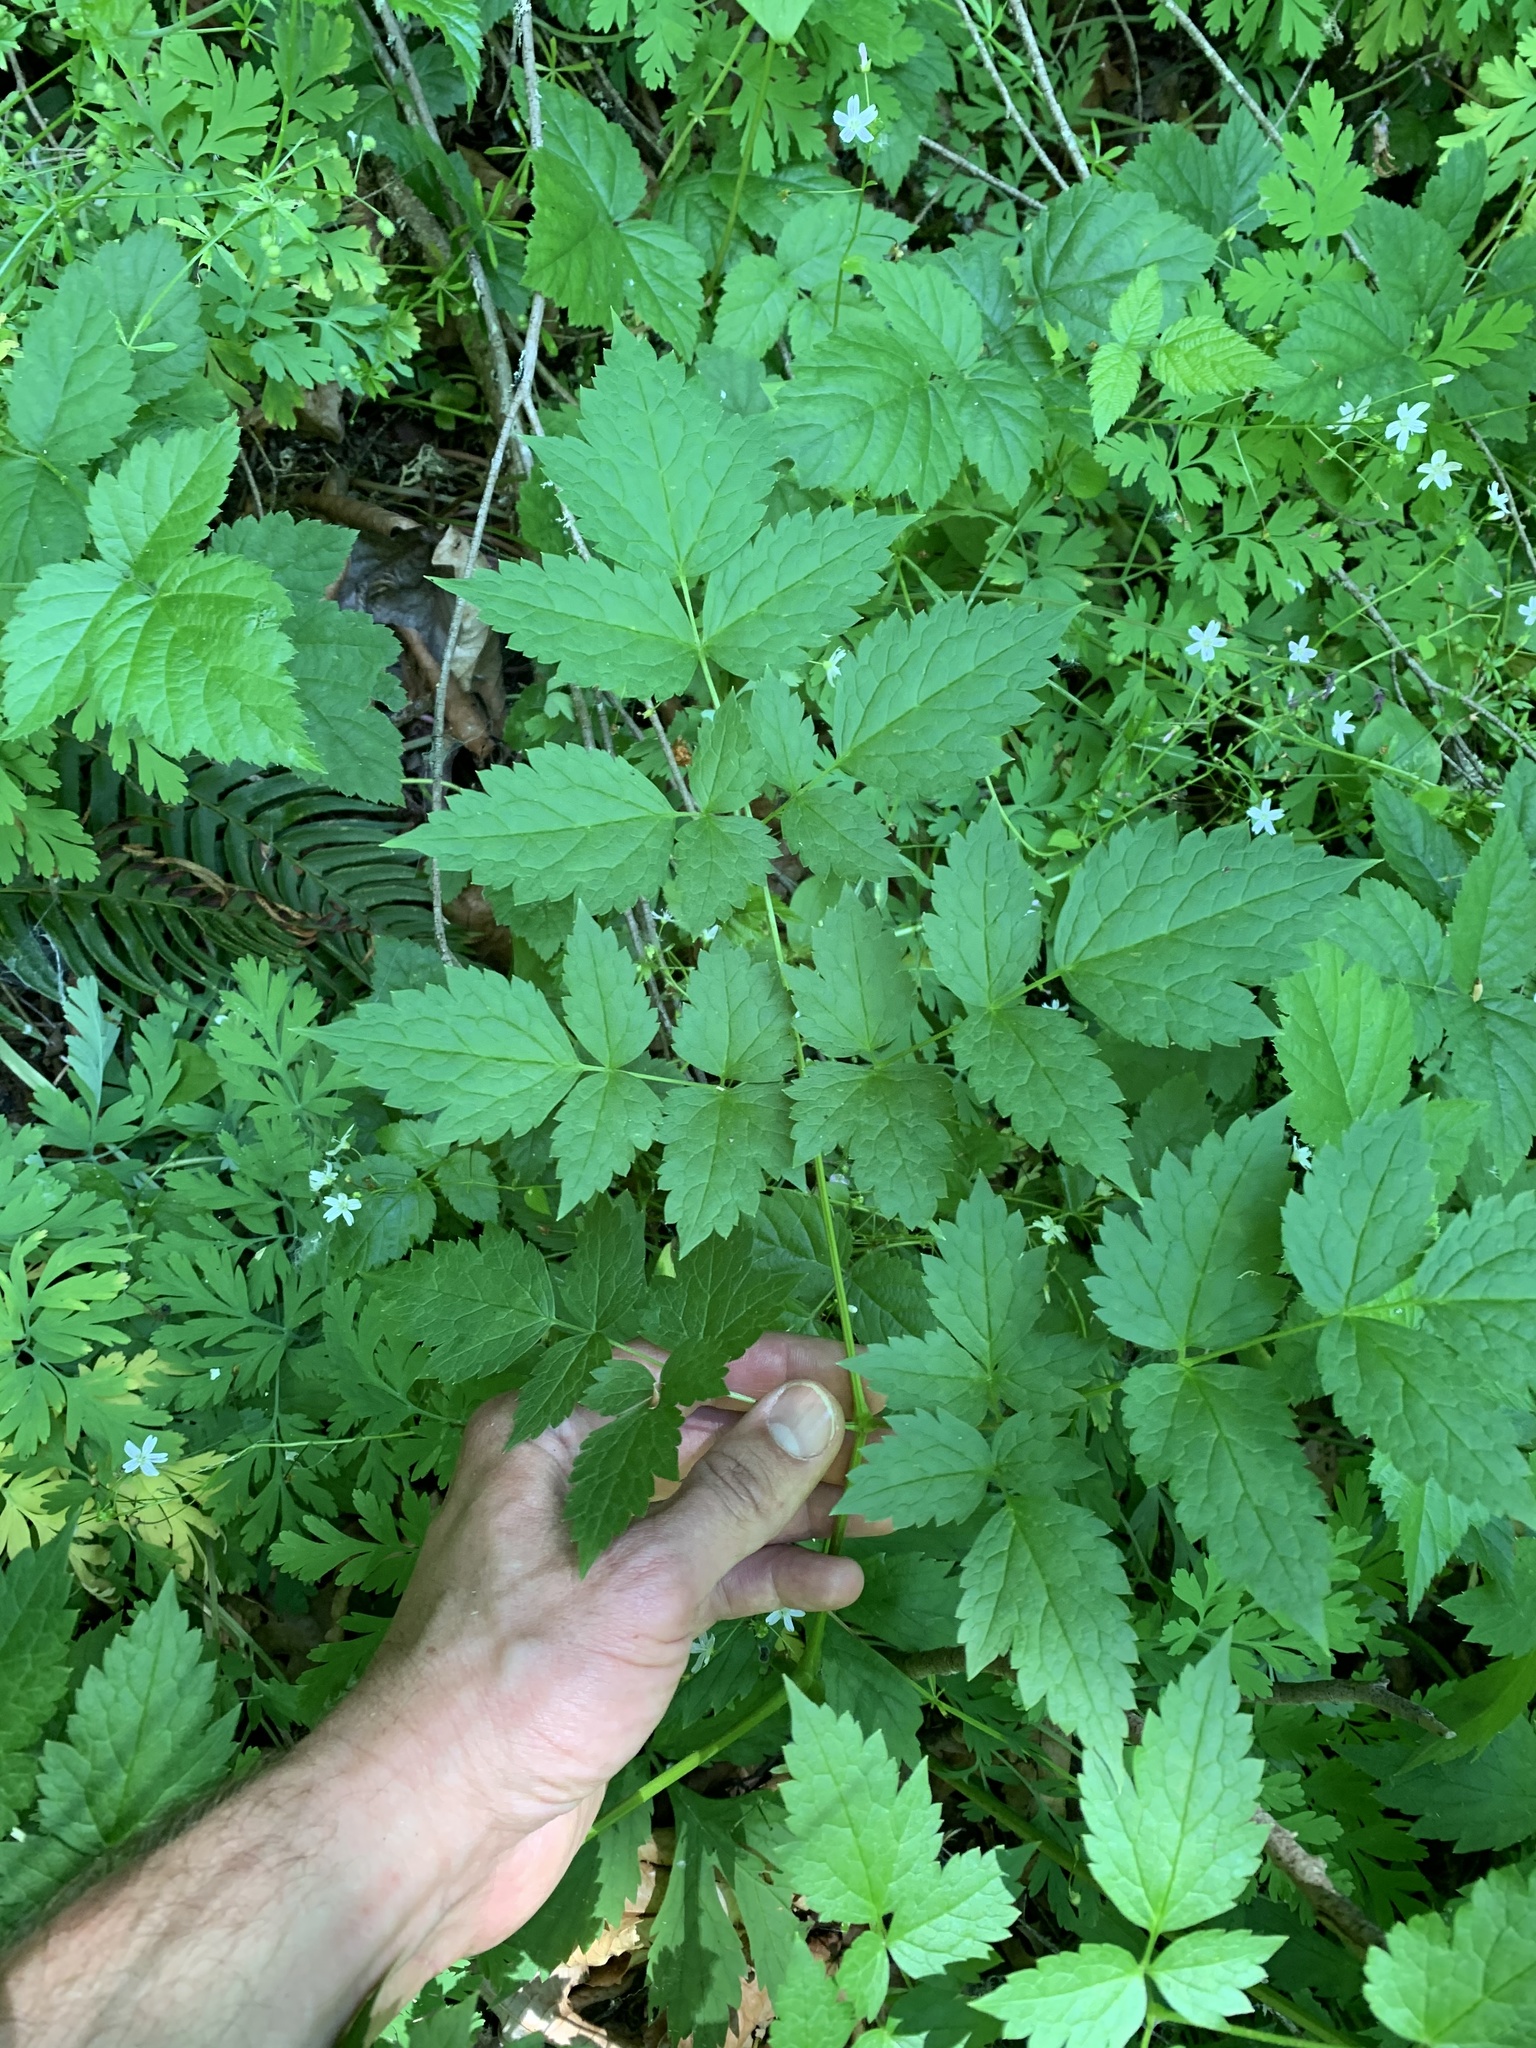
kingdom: Plantae
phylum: Tracheophyta
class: Magnoliopsida
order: Ranunculales
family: Ranunculaceae
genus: Actaea
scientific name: Actaea rubra
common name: Red baneberry
